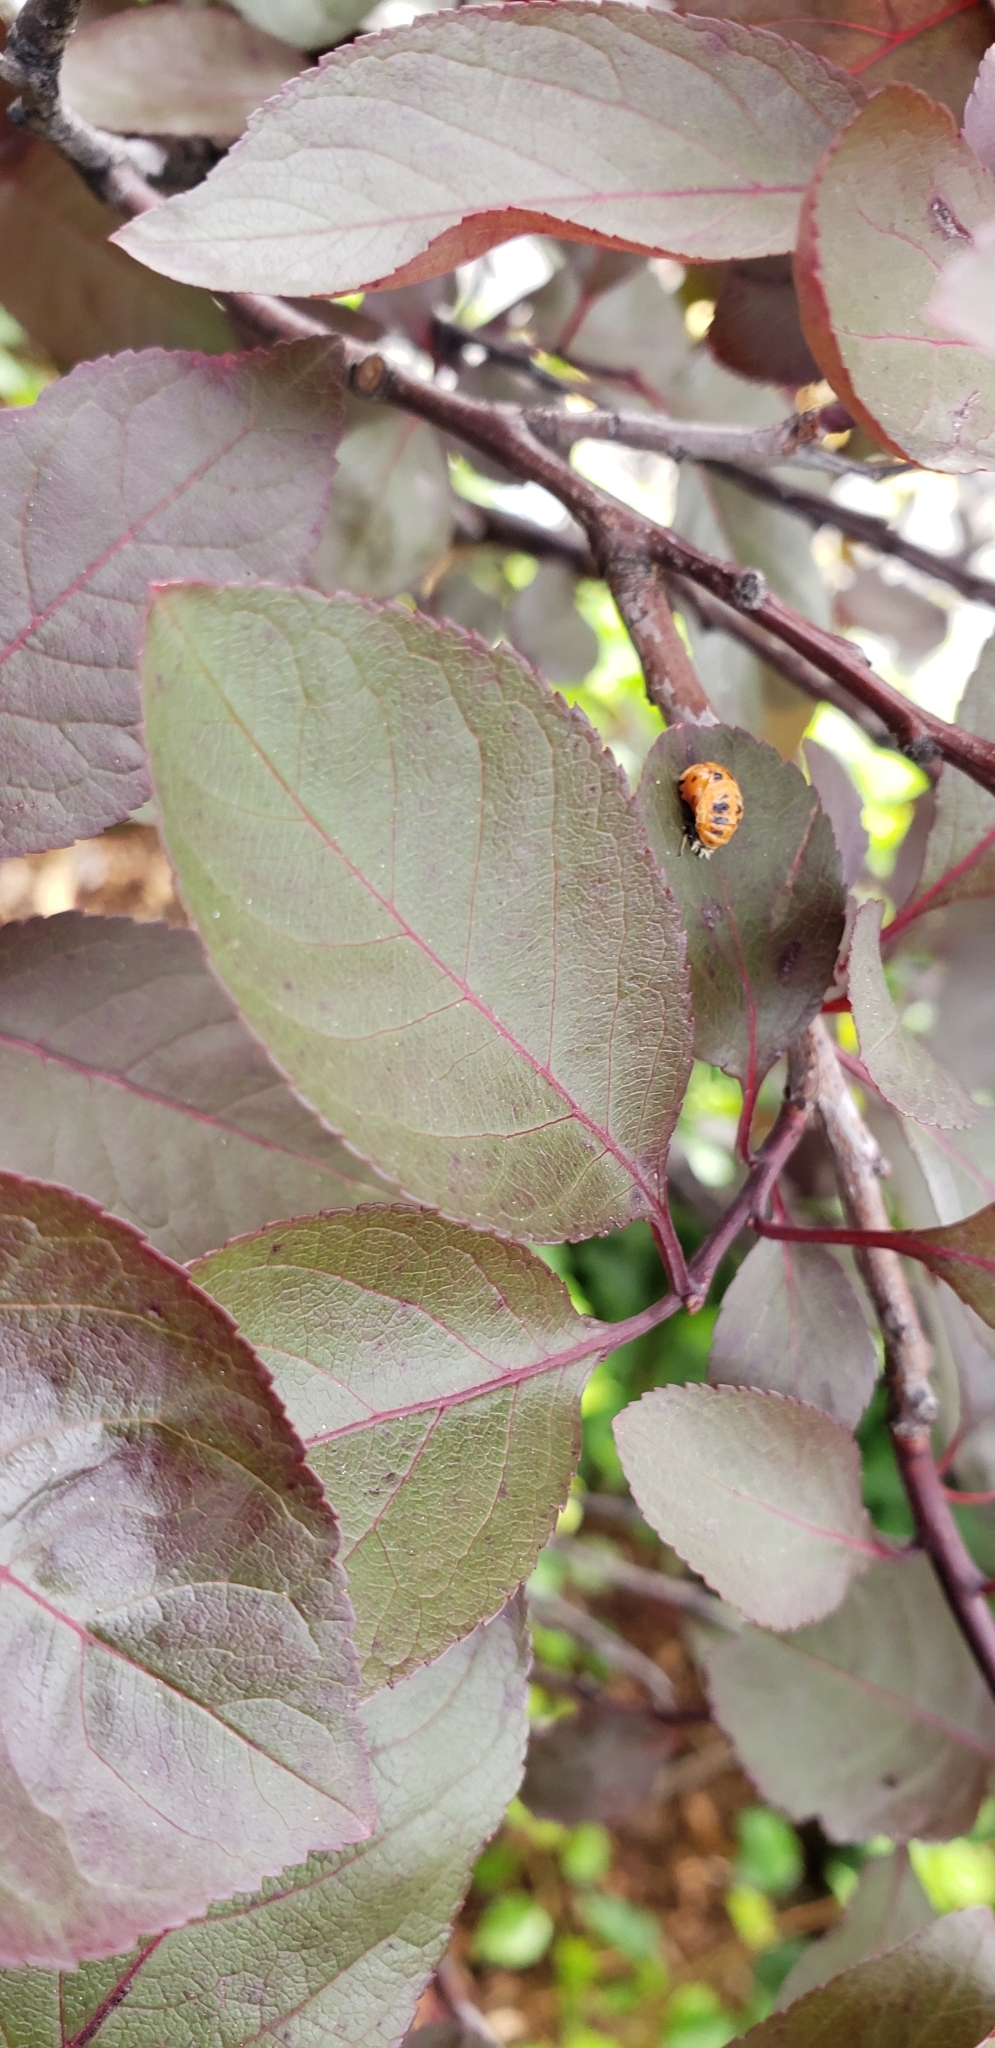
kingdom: Animalia
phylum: Arthropoda
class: Insecta
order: Coleoptera
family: Coccinellidae
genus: Harmonia
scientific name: Harmonia axyridis
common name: Harlequin ladybird
